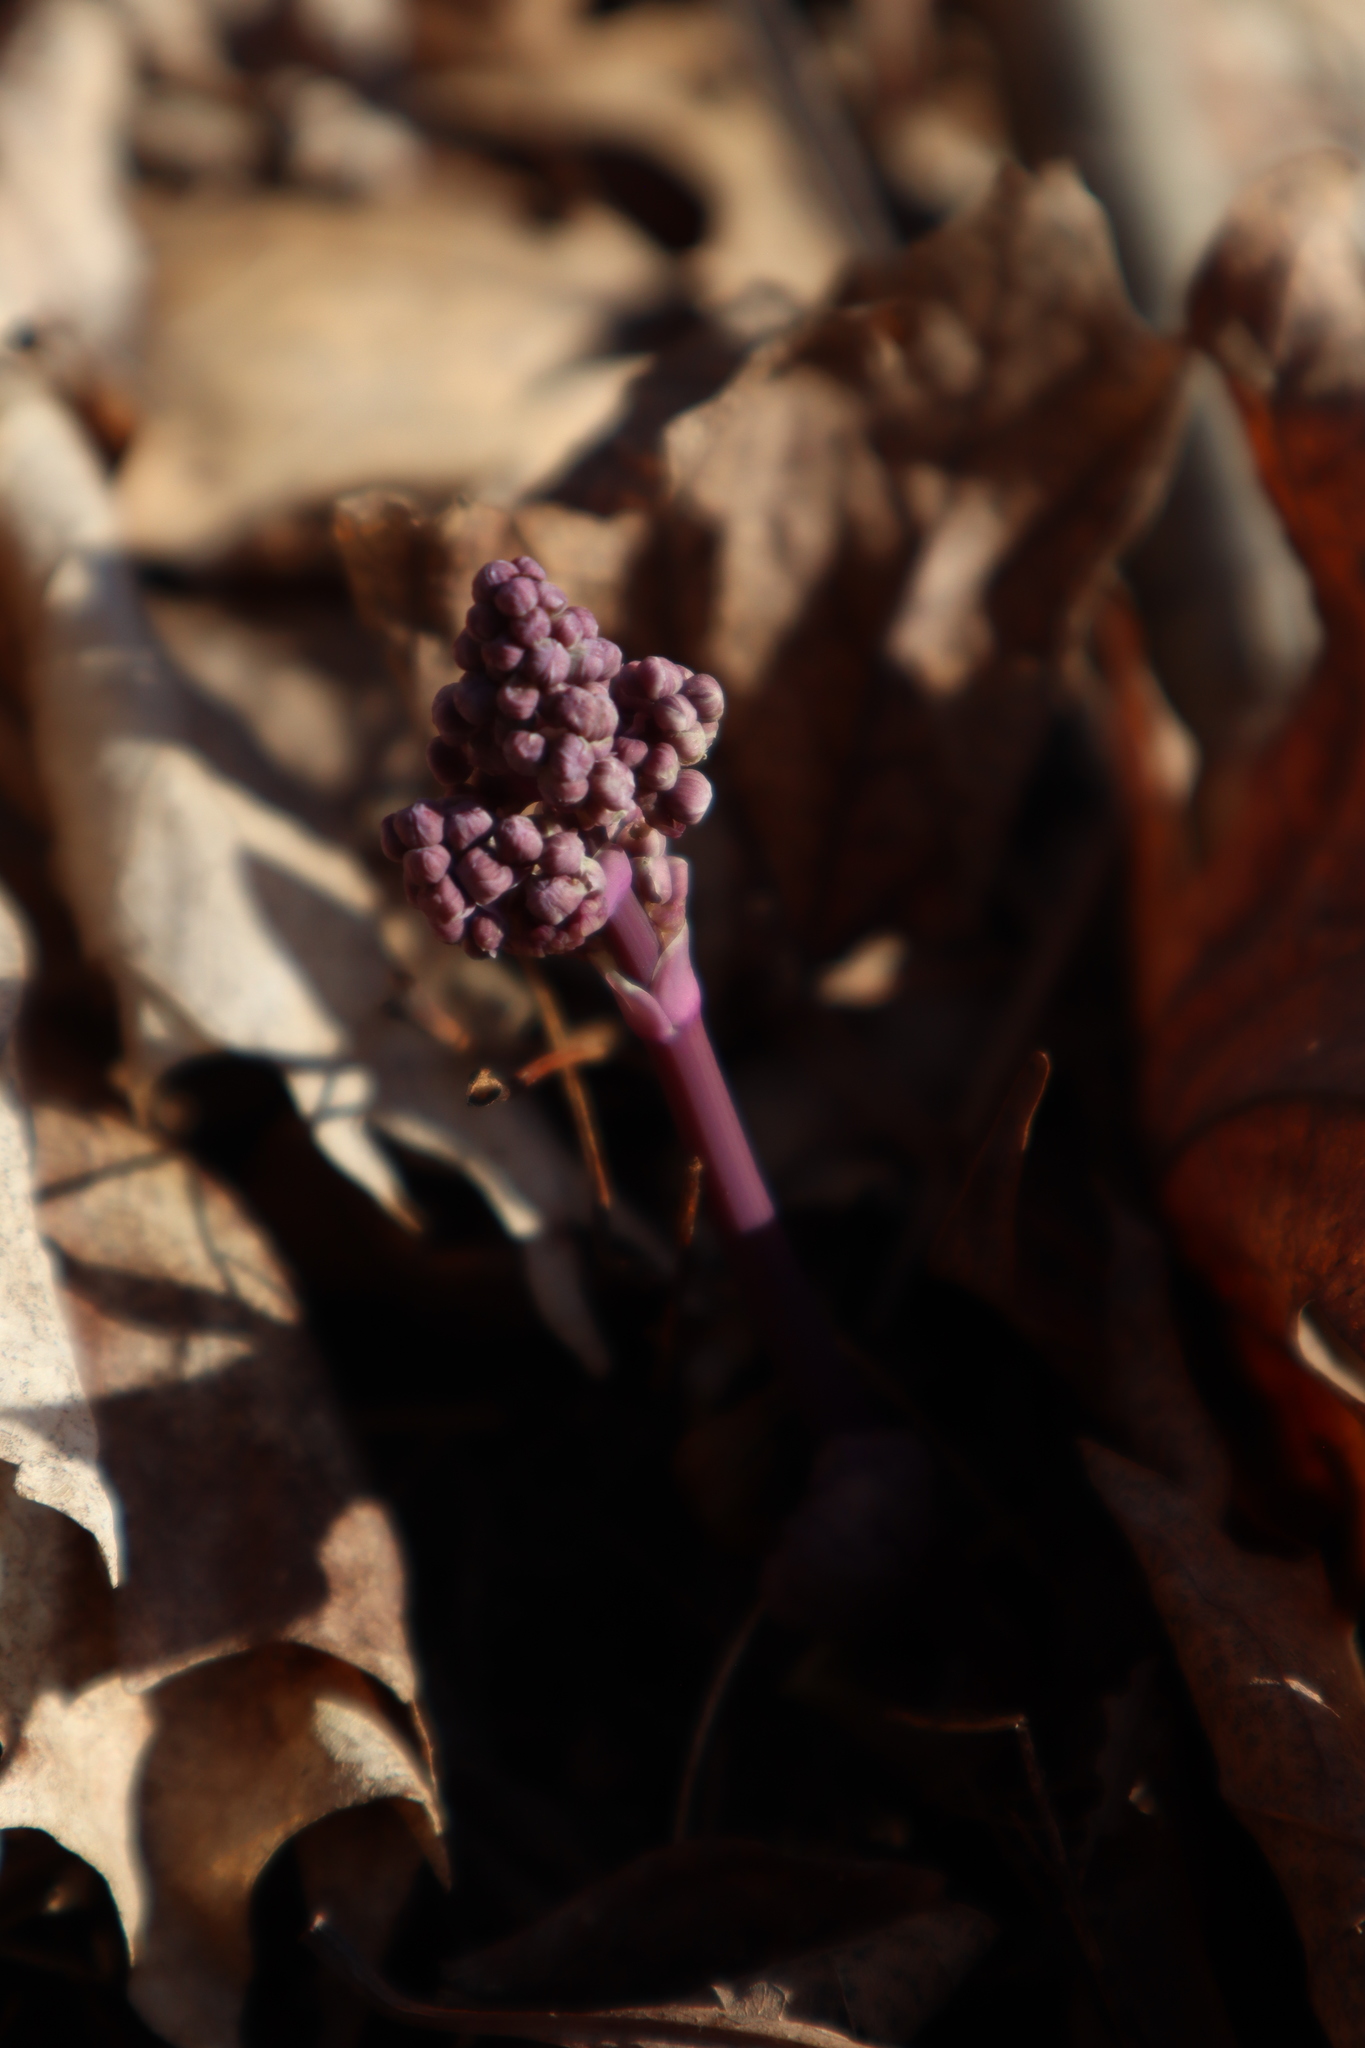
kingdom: Plantae
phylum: Tracheophyta
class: Magnoliopsida
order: Ranunculales
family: Ranunculaceae
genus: Thalictrum
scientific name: Thalictrum dioicum
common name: Early meadow-rue
